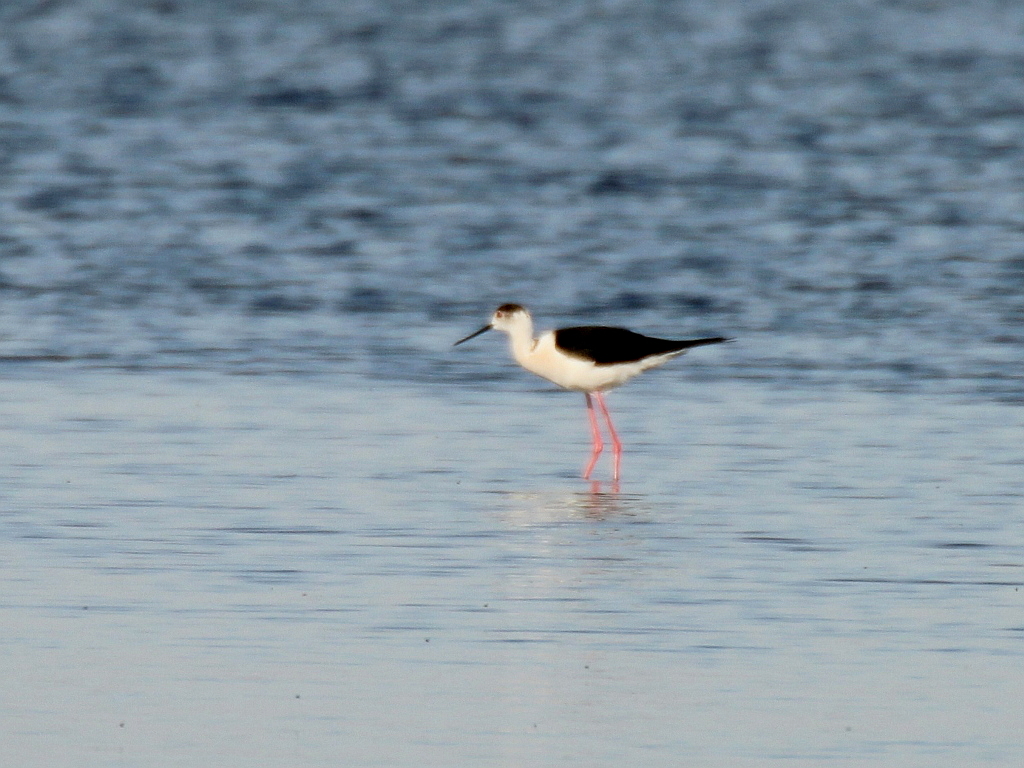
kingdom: Animalia
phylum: Chordata
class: Aves
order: Charadriiformes
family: Recurvirostridae
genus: Himantopus
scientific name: Himantopus himantopus
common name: Black-winged stilt
